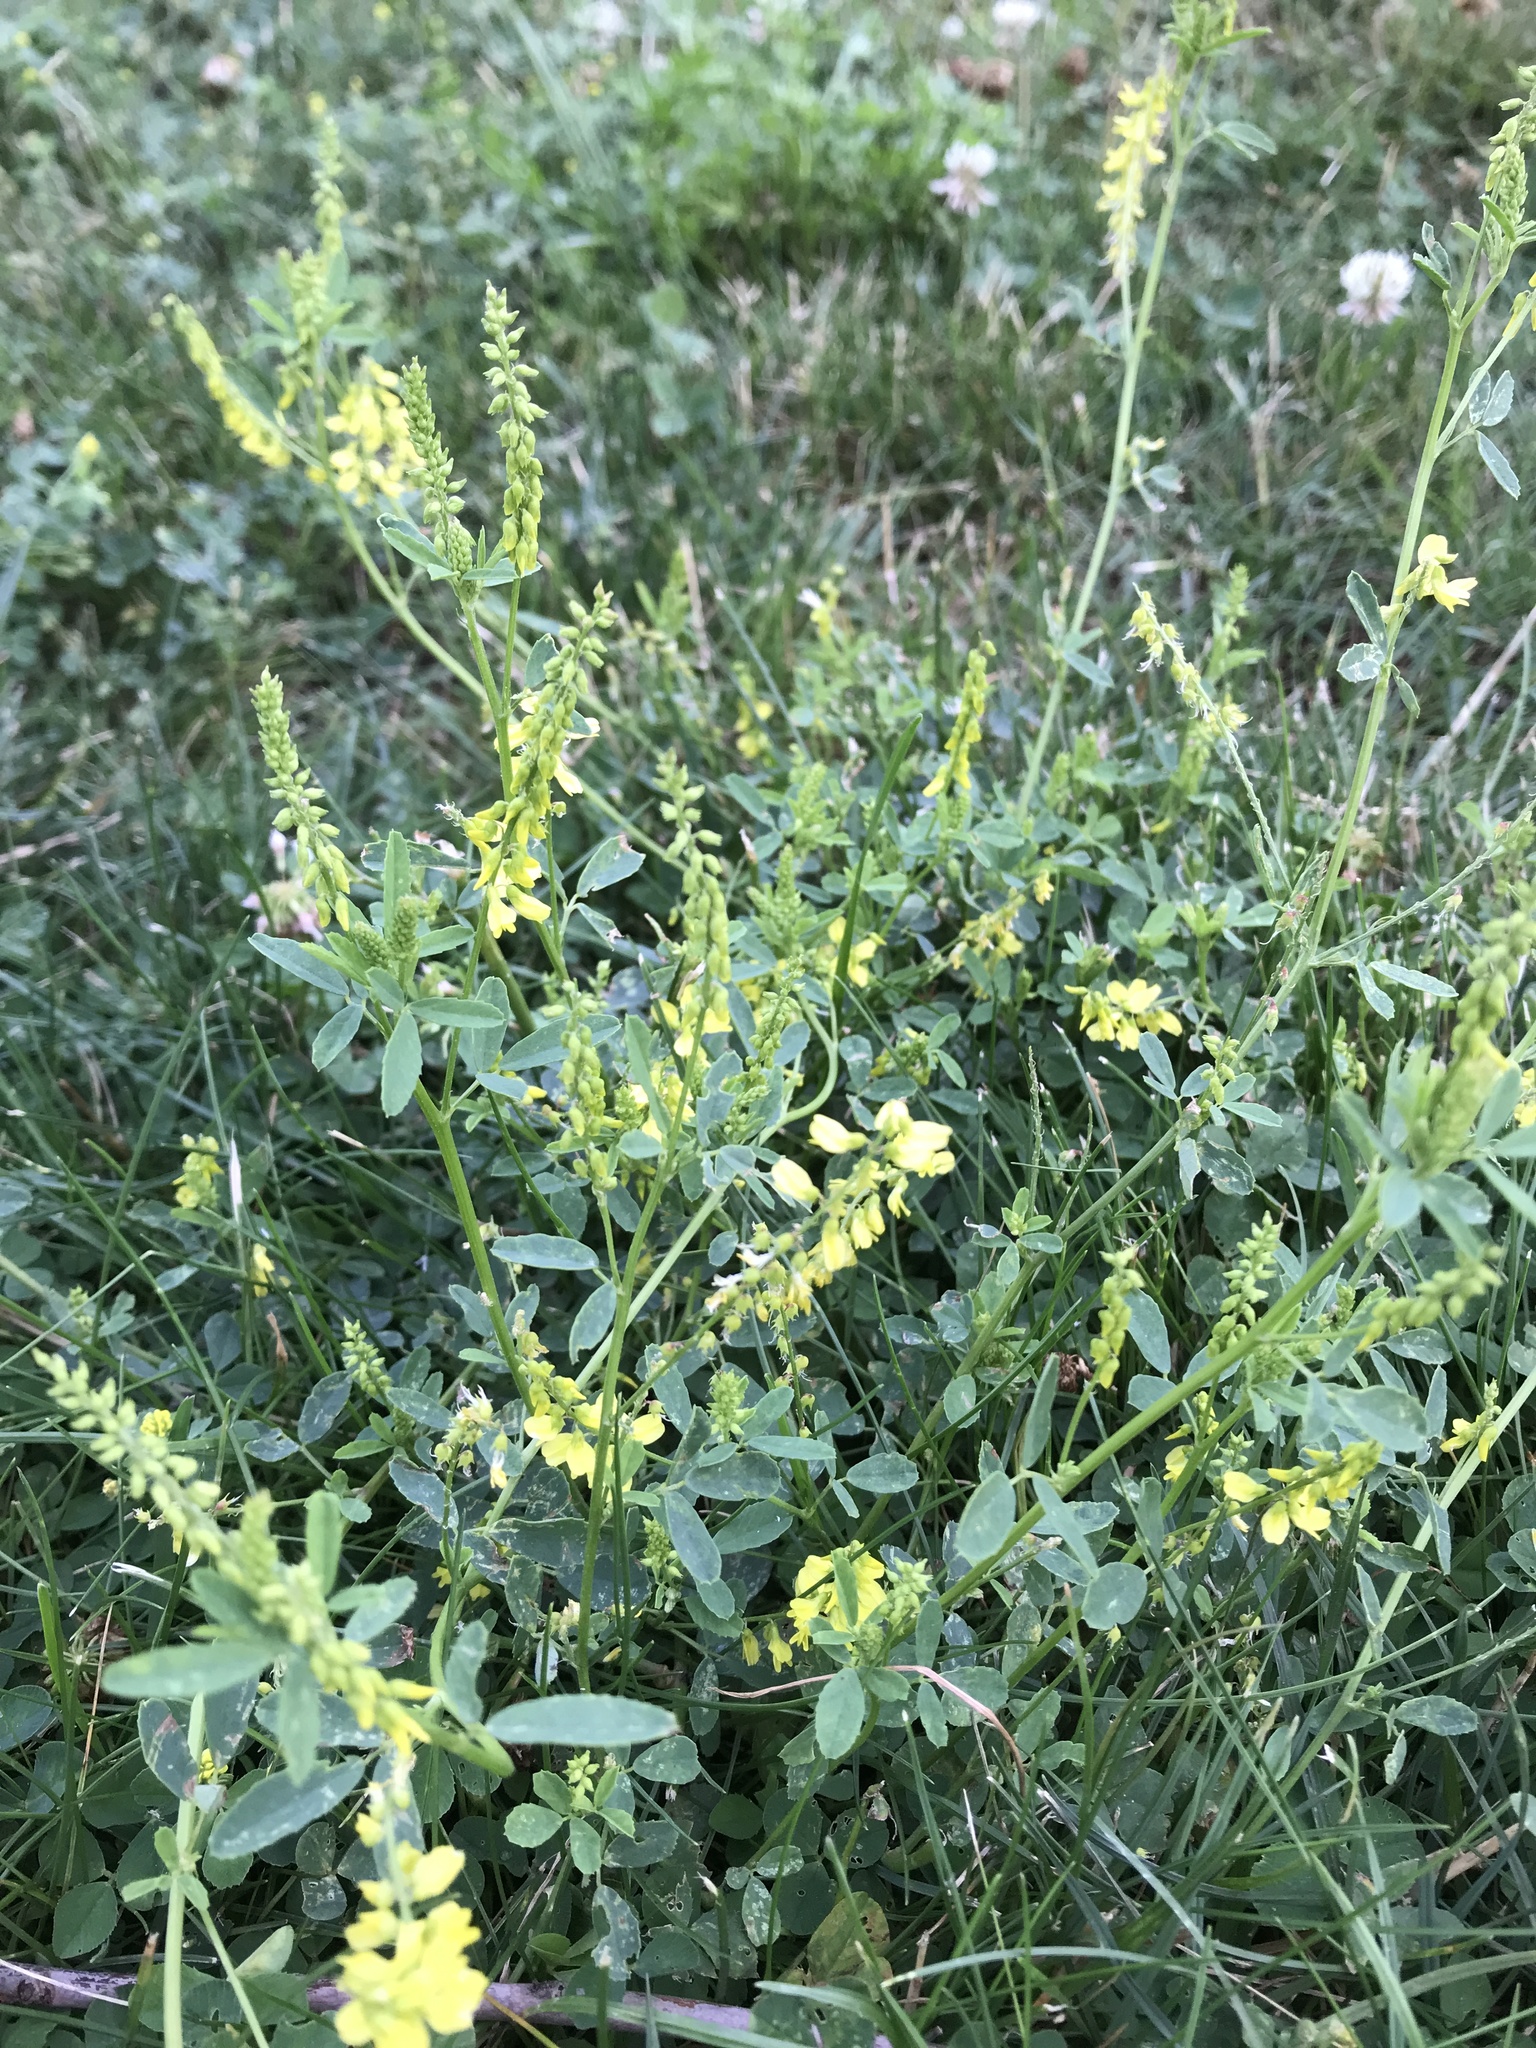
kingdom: Plantae
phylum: Tracheophyta
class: Magnoliopsida
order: Fabales
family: Fabaceae
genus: Melilotus
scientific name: Melilotus officinalis
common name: Sweetclover
